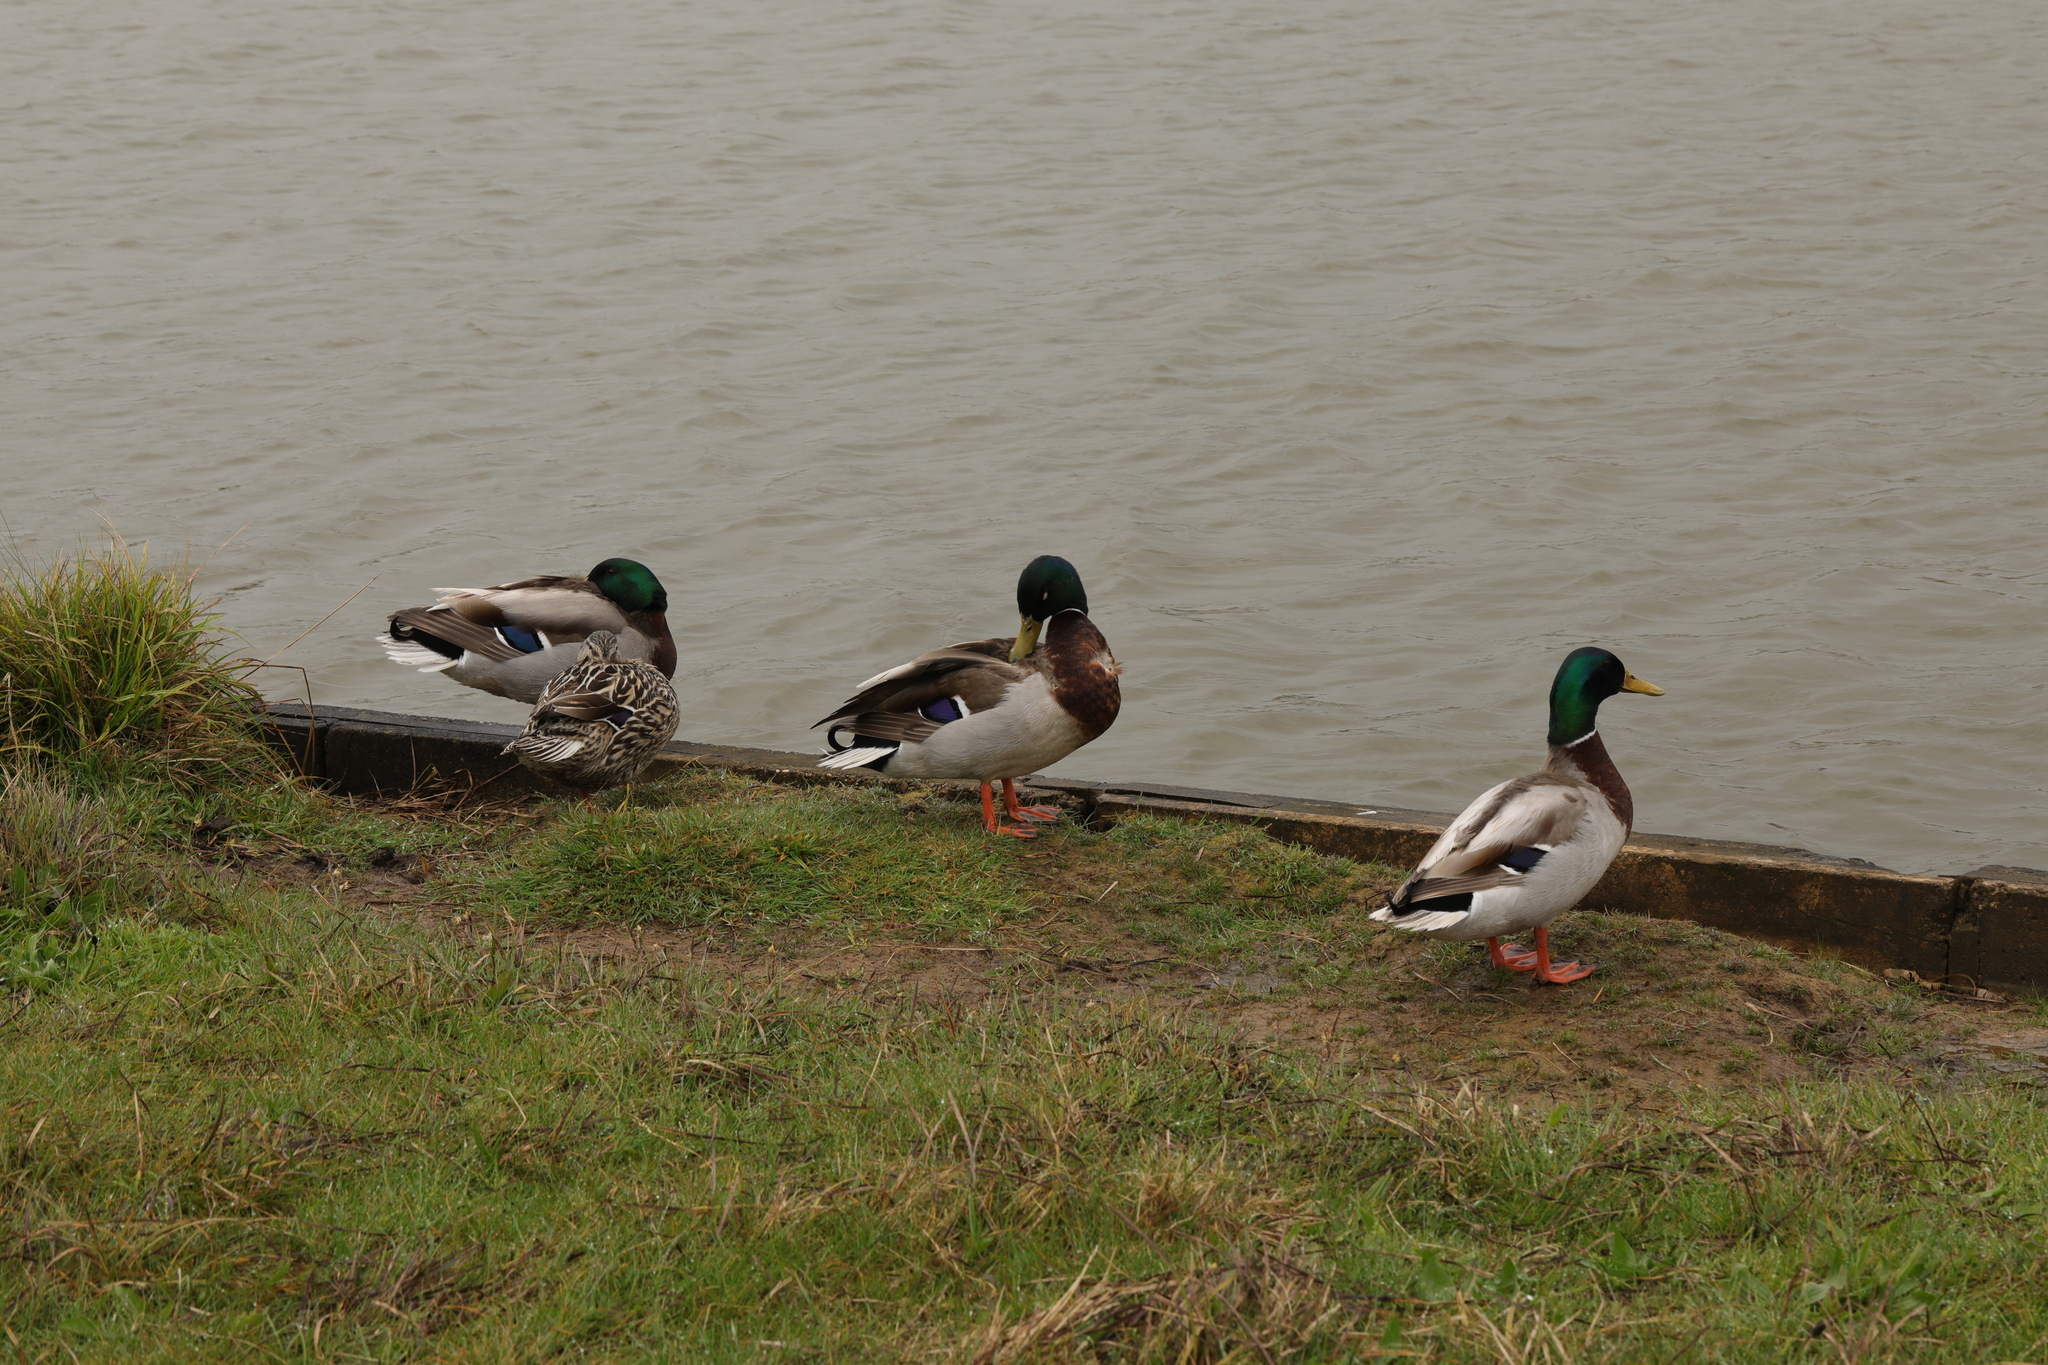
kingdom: Animalia
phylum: Chordata
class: Aves
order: Anseriformes
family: Anatidae
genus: Anas
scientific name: Anas platyrhynchos
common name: Mallard
